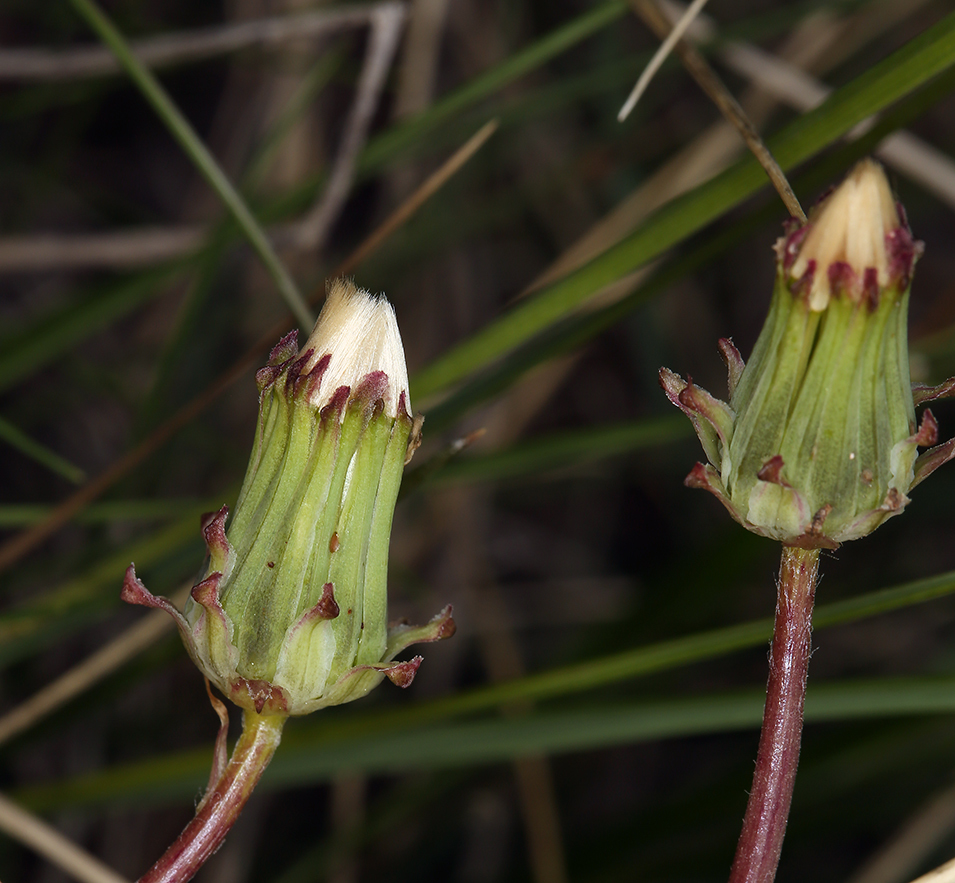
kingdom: Plantae
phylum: Tracheophyta
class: Magnoliopsida
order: Asterales
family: Asteraceae
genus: Taraxacum
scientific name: Taraxacum ceratophorum
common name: Horn-bearing dandelion
